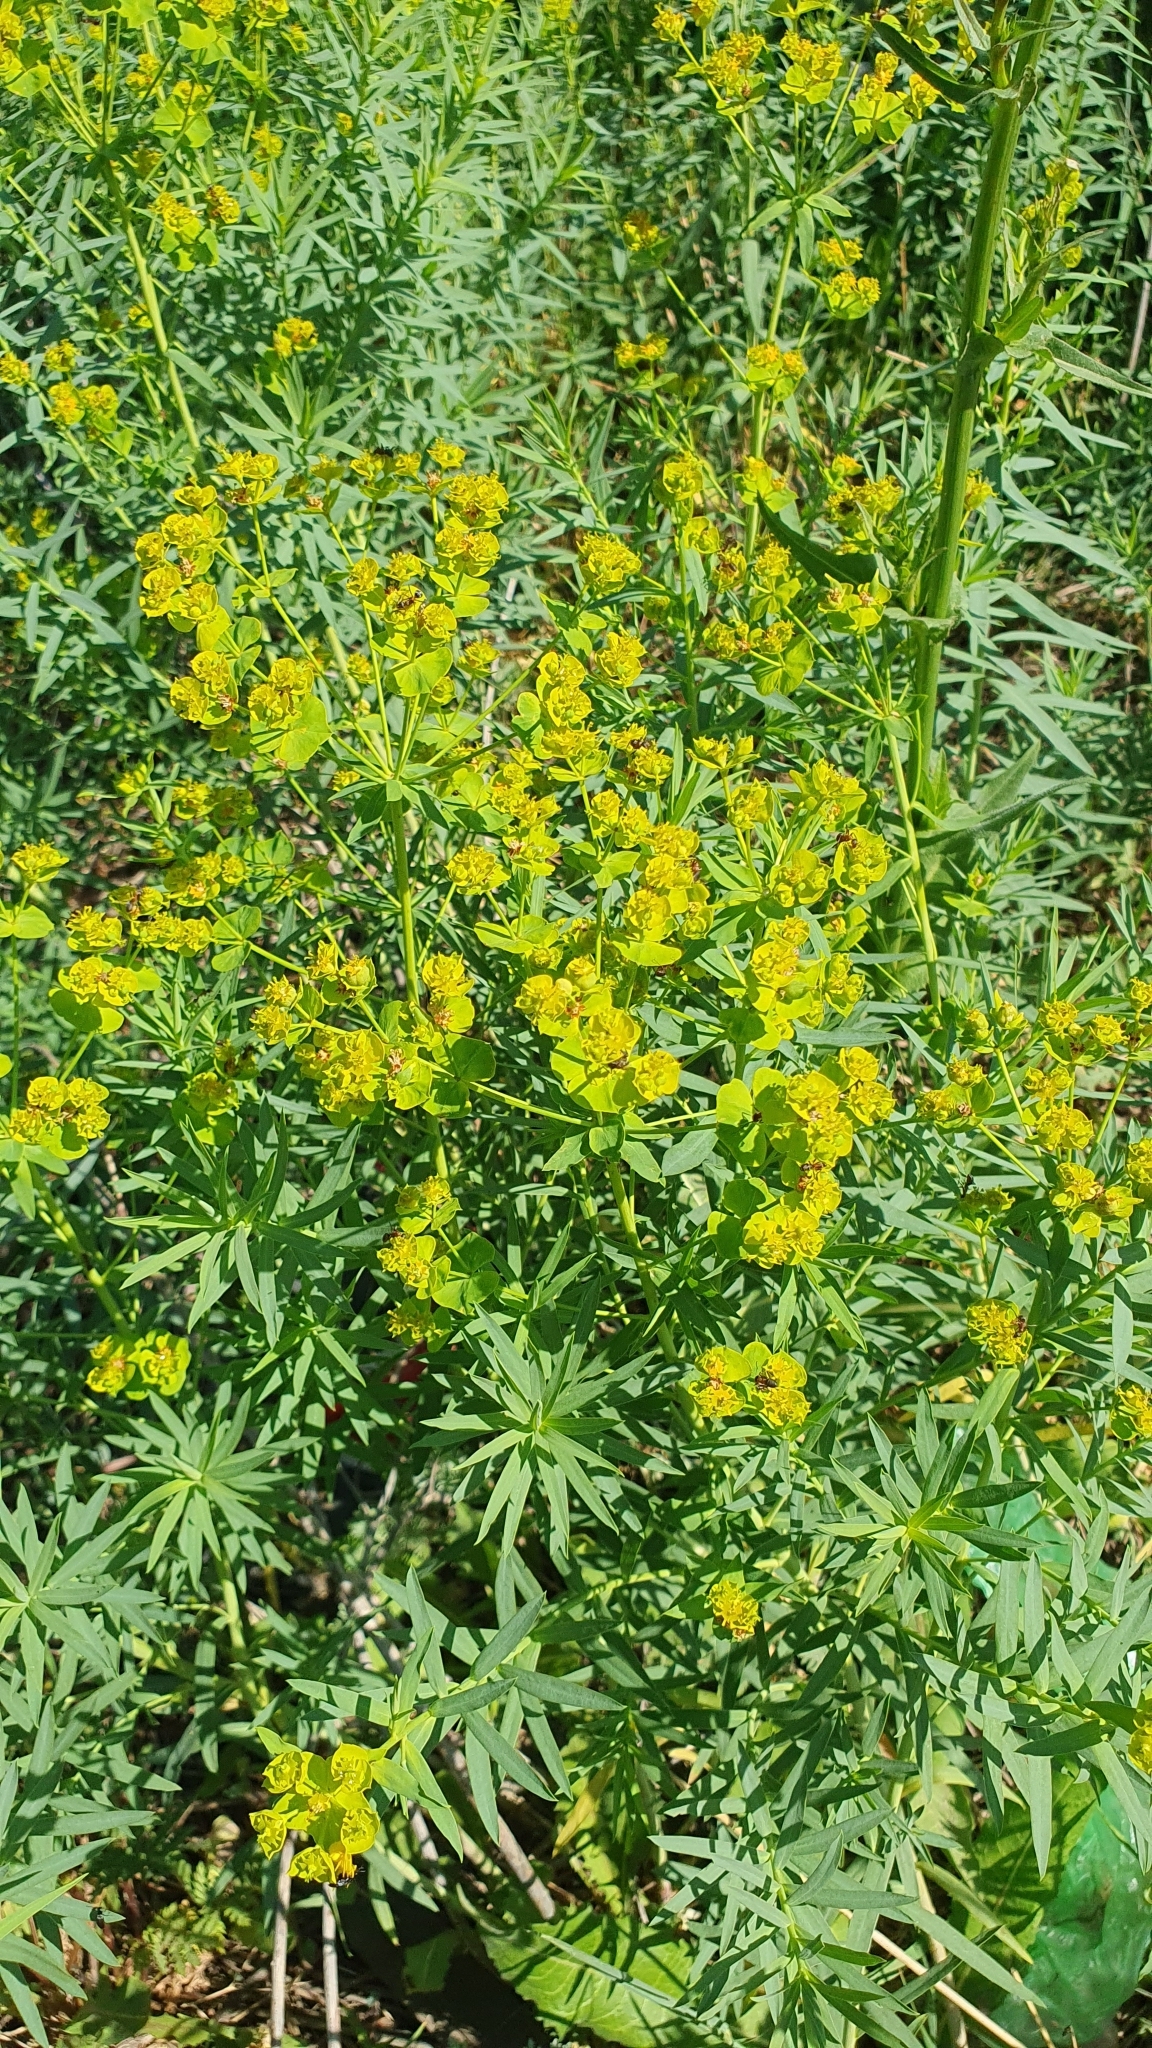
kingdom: Plantae
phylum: Tracheophyta
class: Magnoliopsida
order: Malpighiales
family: Euphorbiaceae
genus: Euphorbia
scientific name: Euphorbia virgata
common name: Leafy spurge
